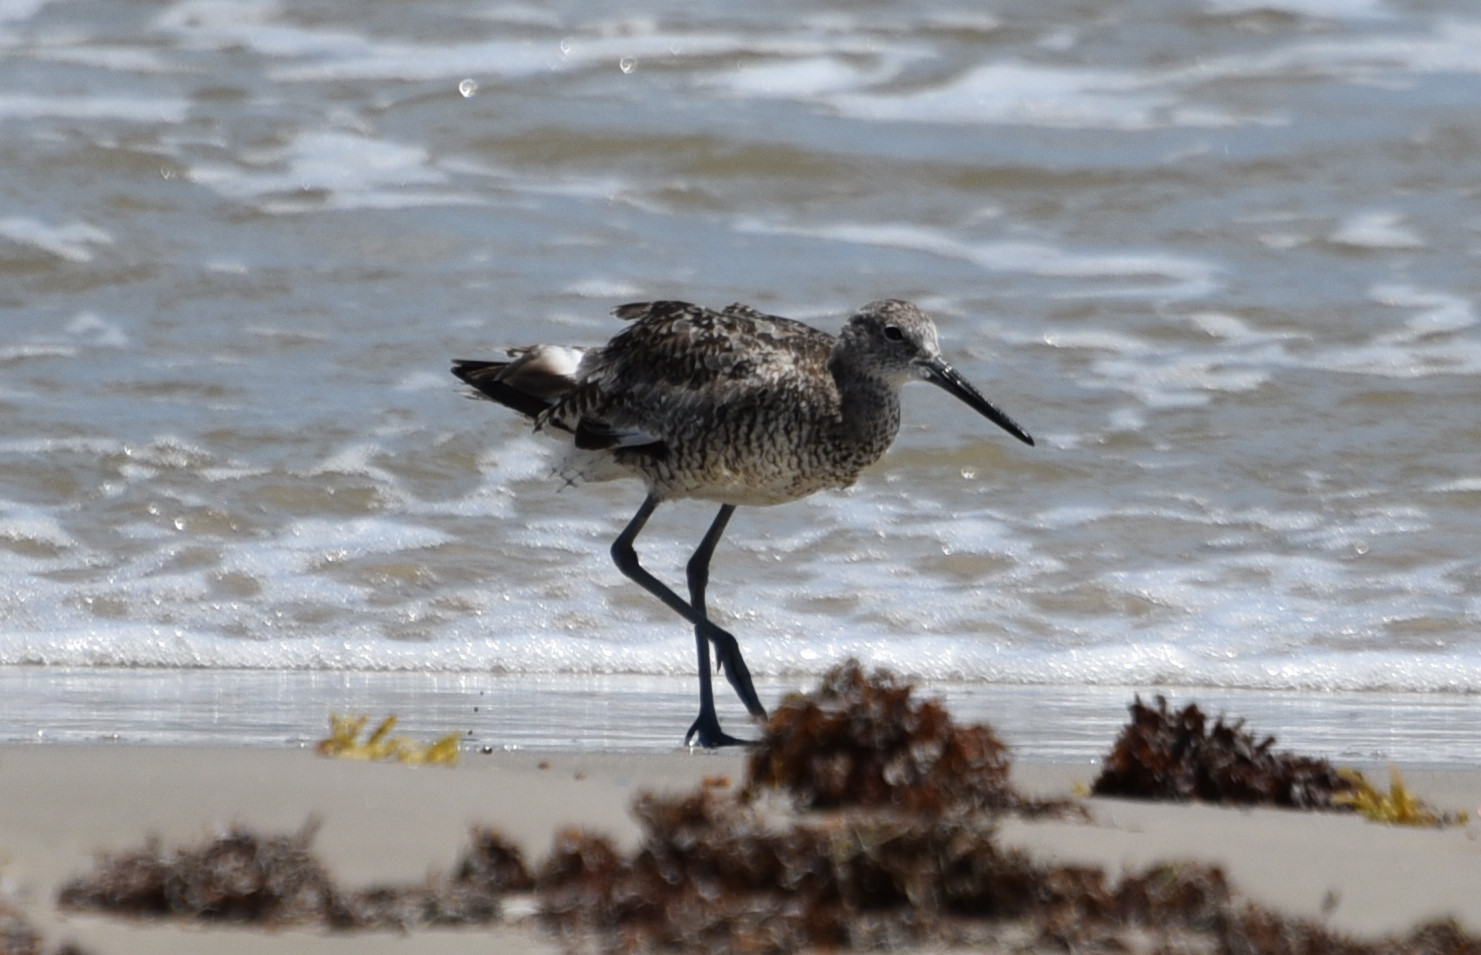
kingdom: Animalia
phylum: Chordata
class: Aves
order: Charadriiformes
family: Scolopacidae
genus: Tringa
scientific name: Tringa semipalmata
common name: Willet
